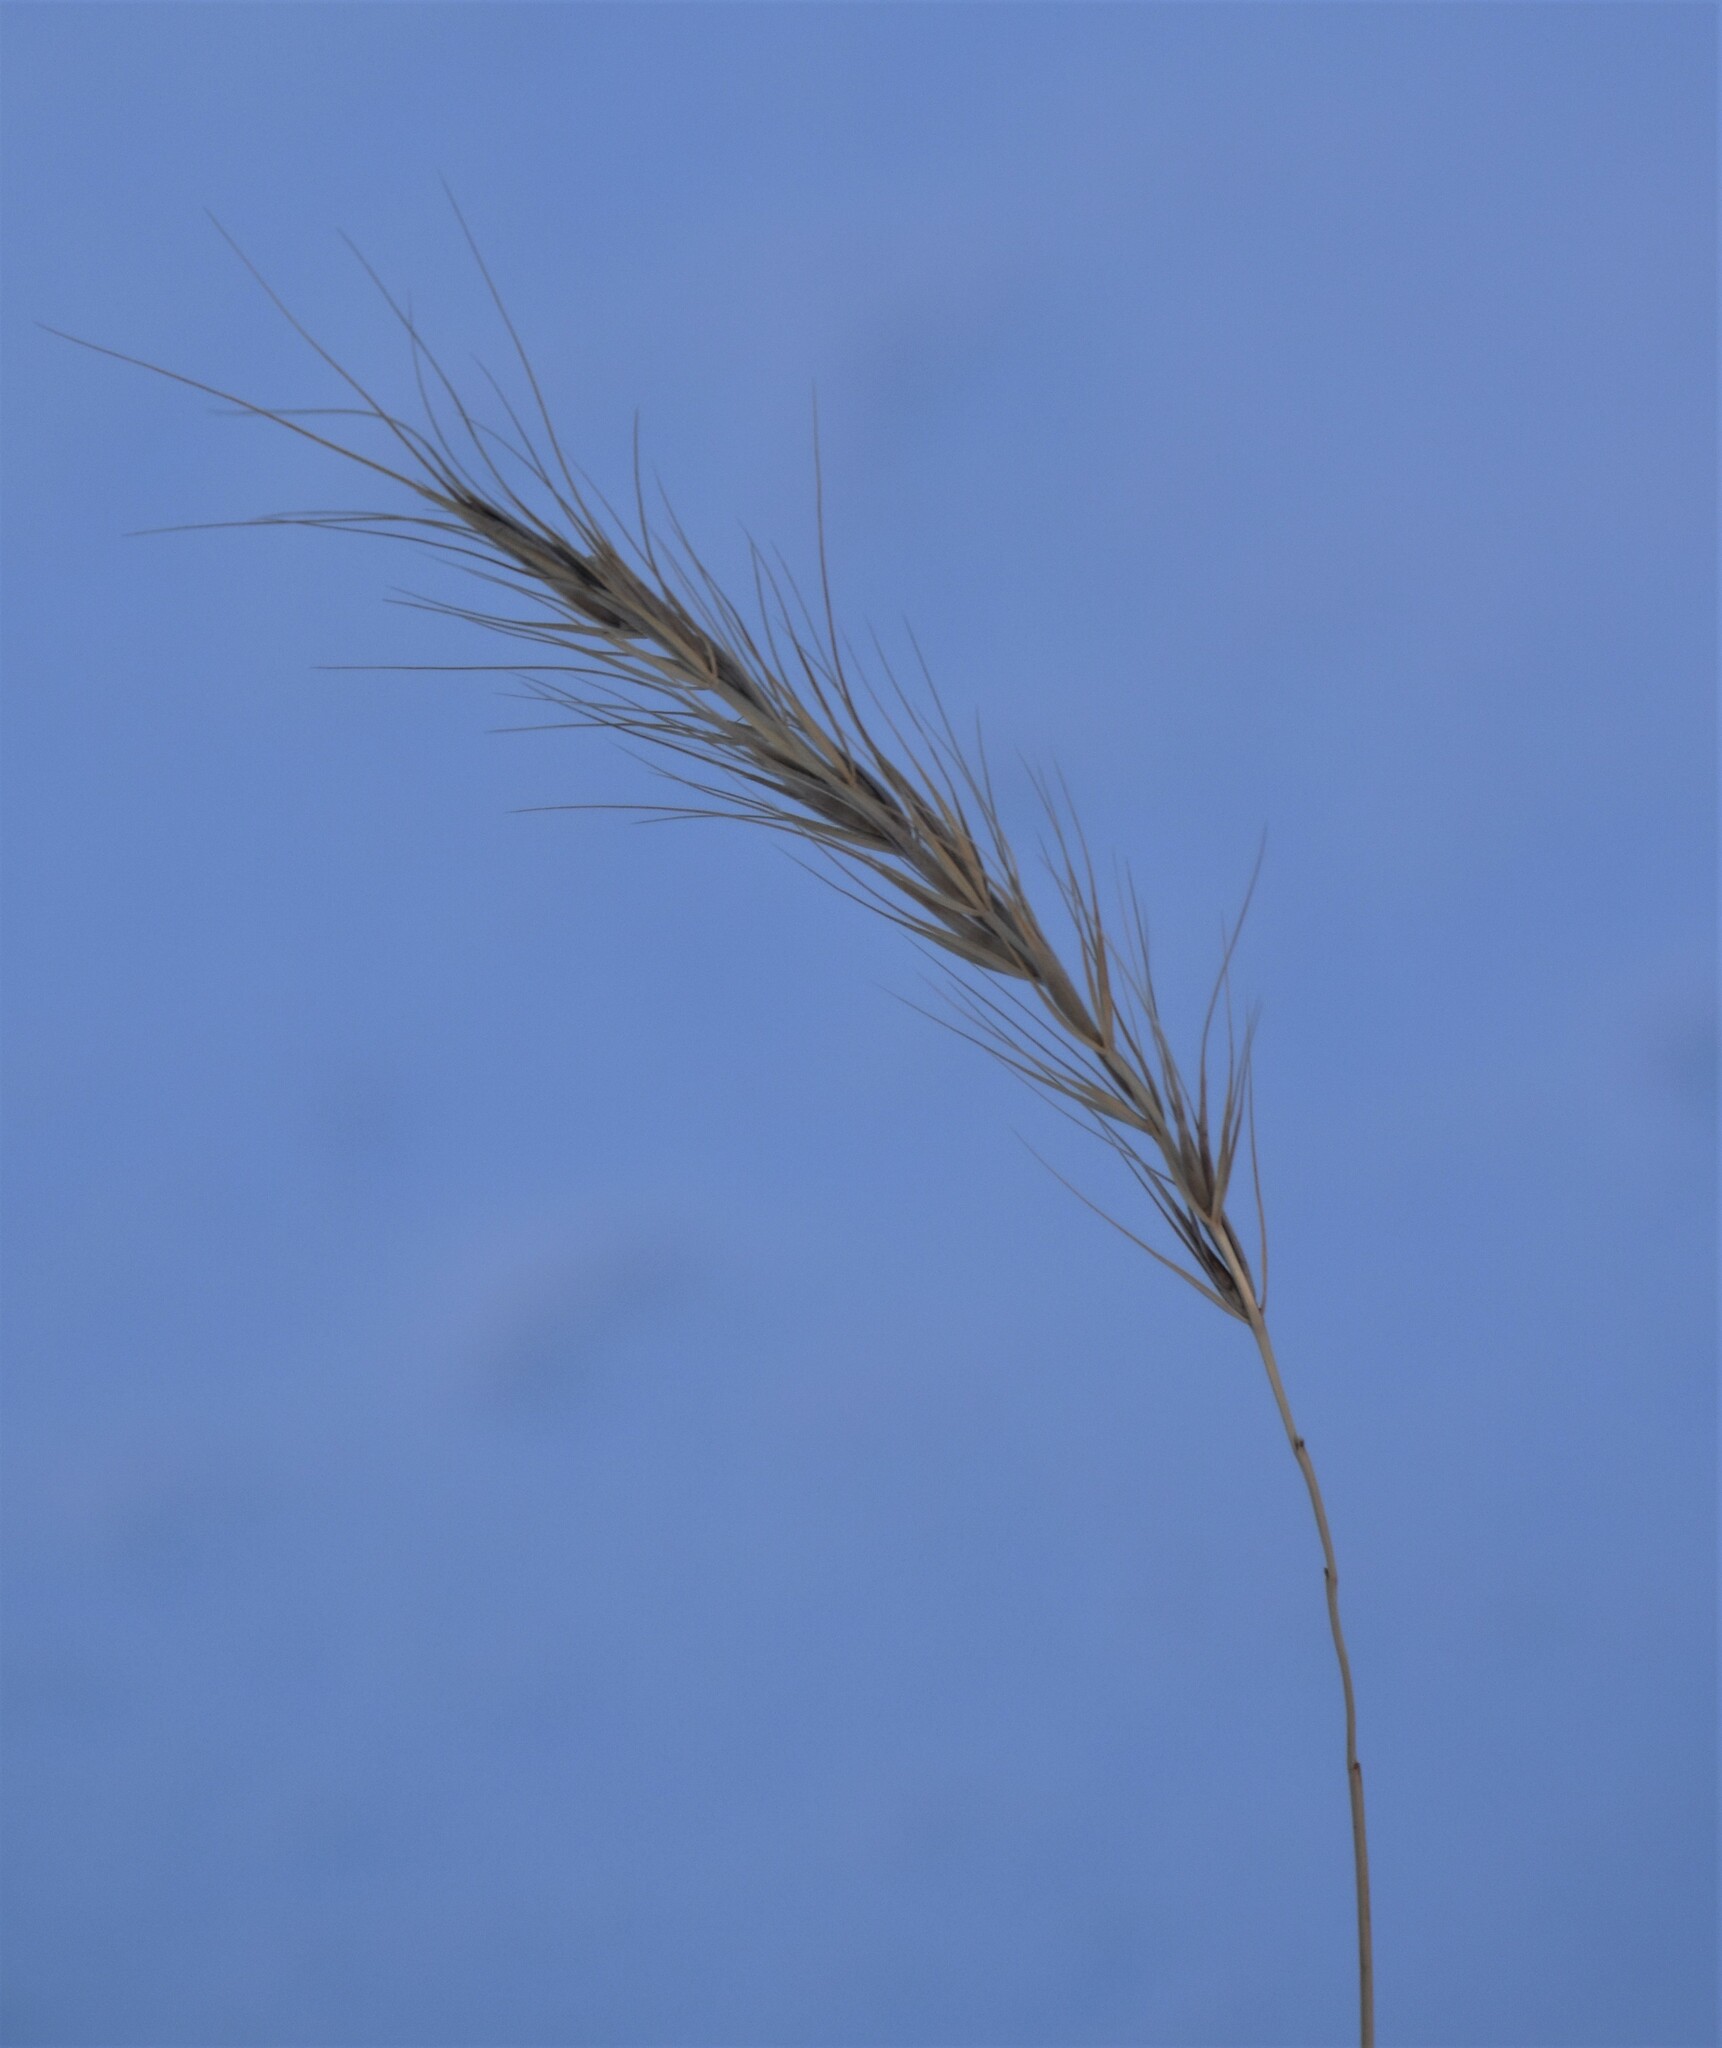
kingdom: Plantae
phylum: Tracheophyta
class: Liliopsida
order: Poales
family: Poaceae
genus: Elymus
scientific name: Elymus canadensis
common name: Canada wild rye
